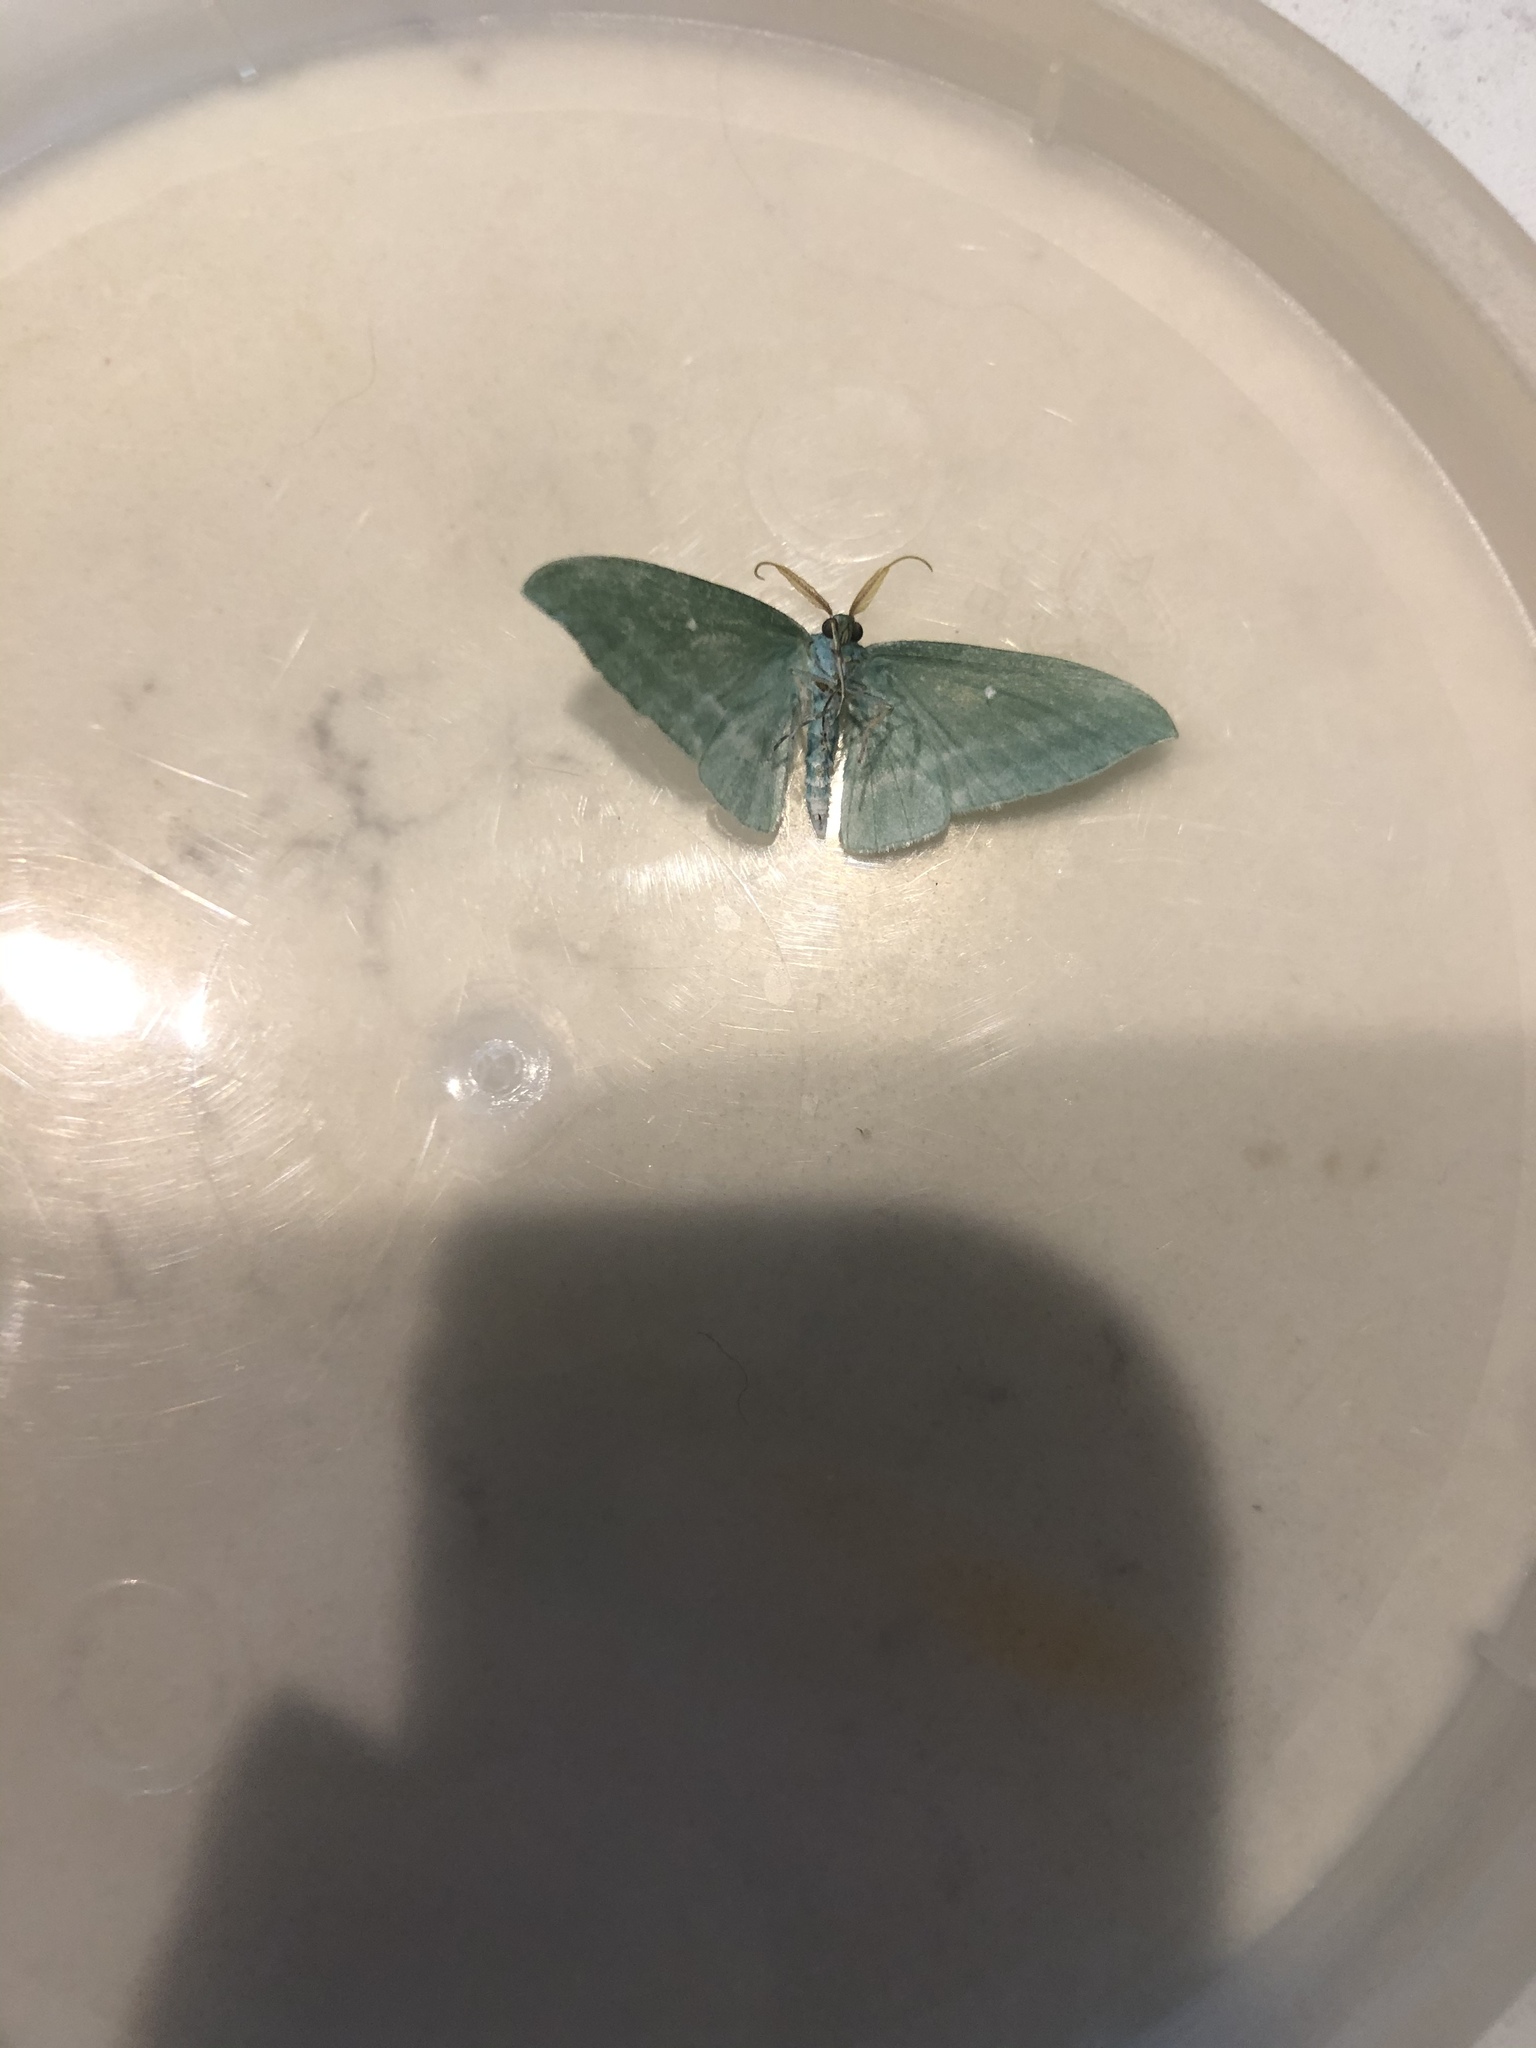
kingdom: Animalia
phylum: Arthropoda
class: Insecta
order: Lepidoptera
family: Geometridae
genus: Dyspteris
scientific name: Dyspteris abortivaria
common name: Bad-wing
